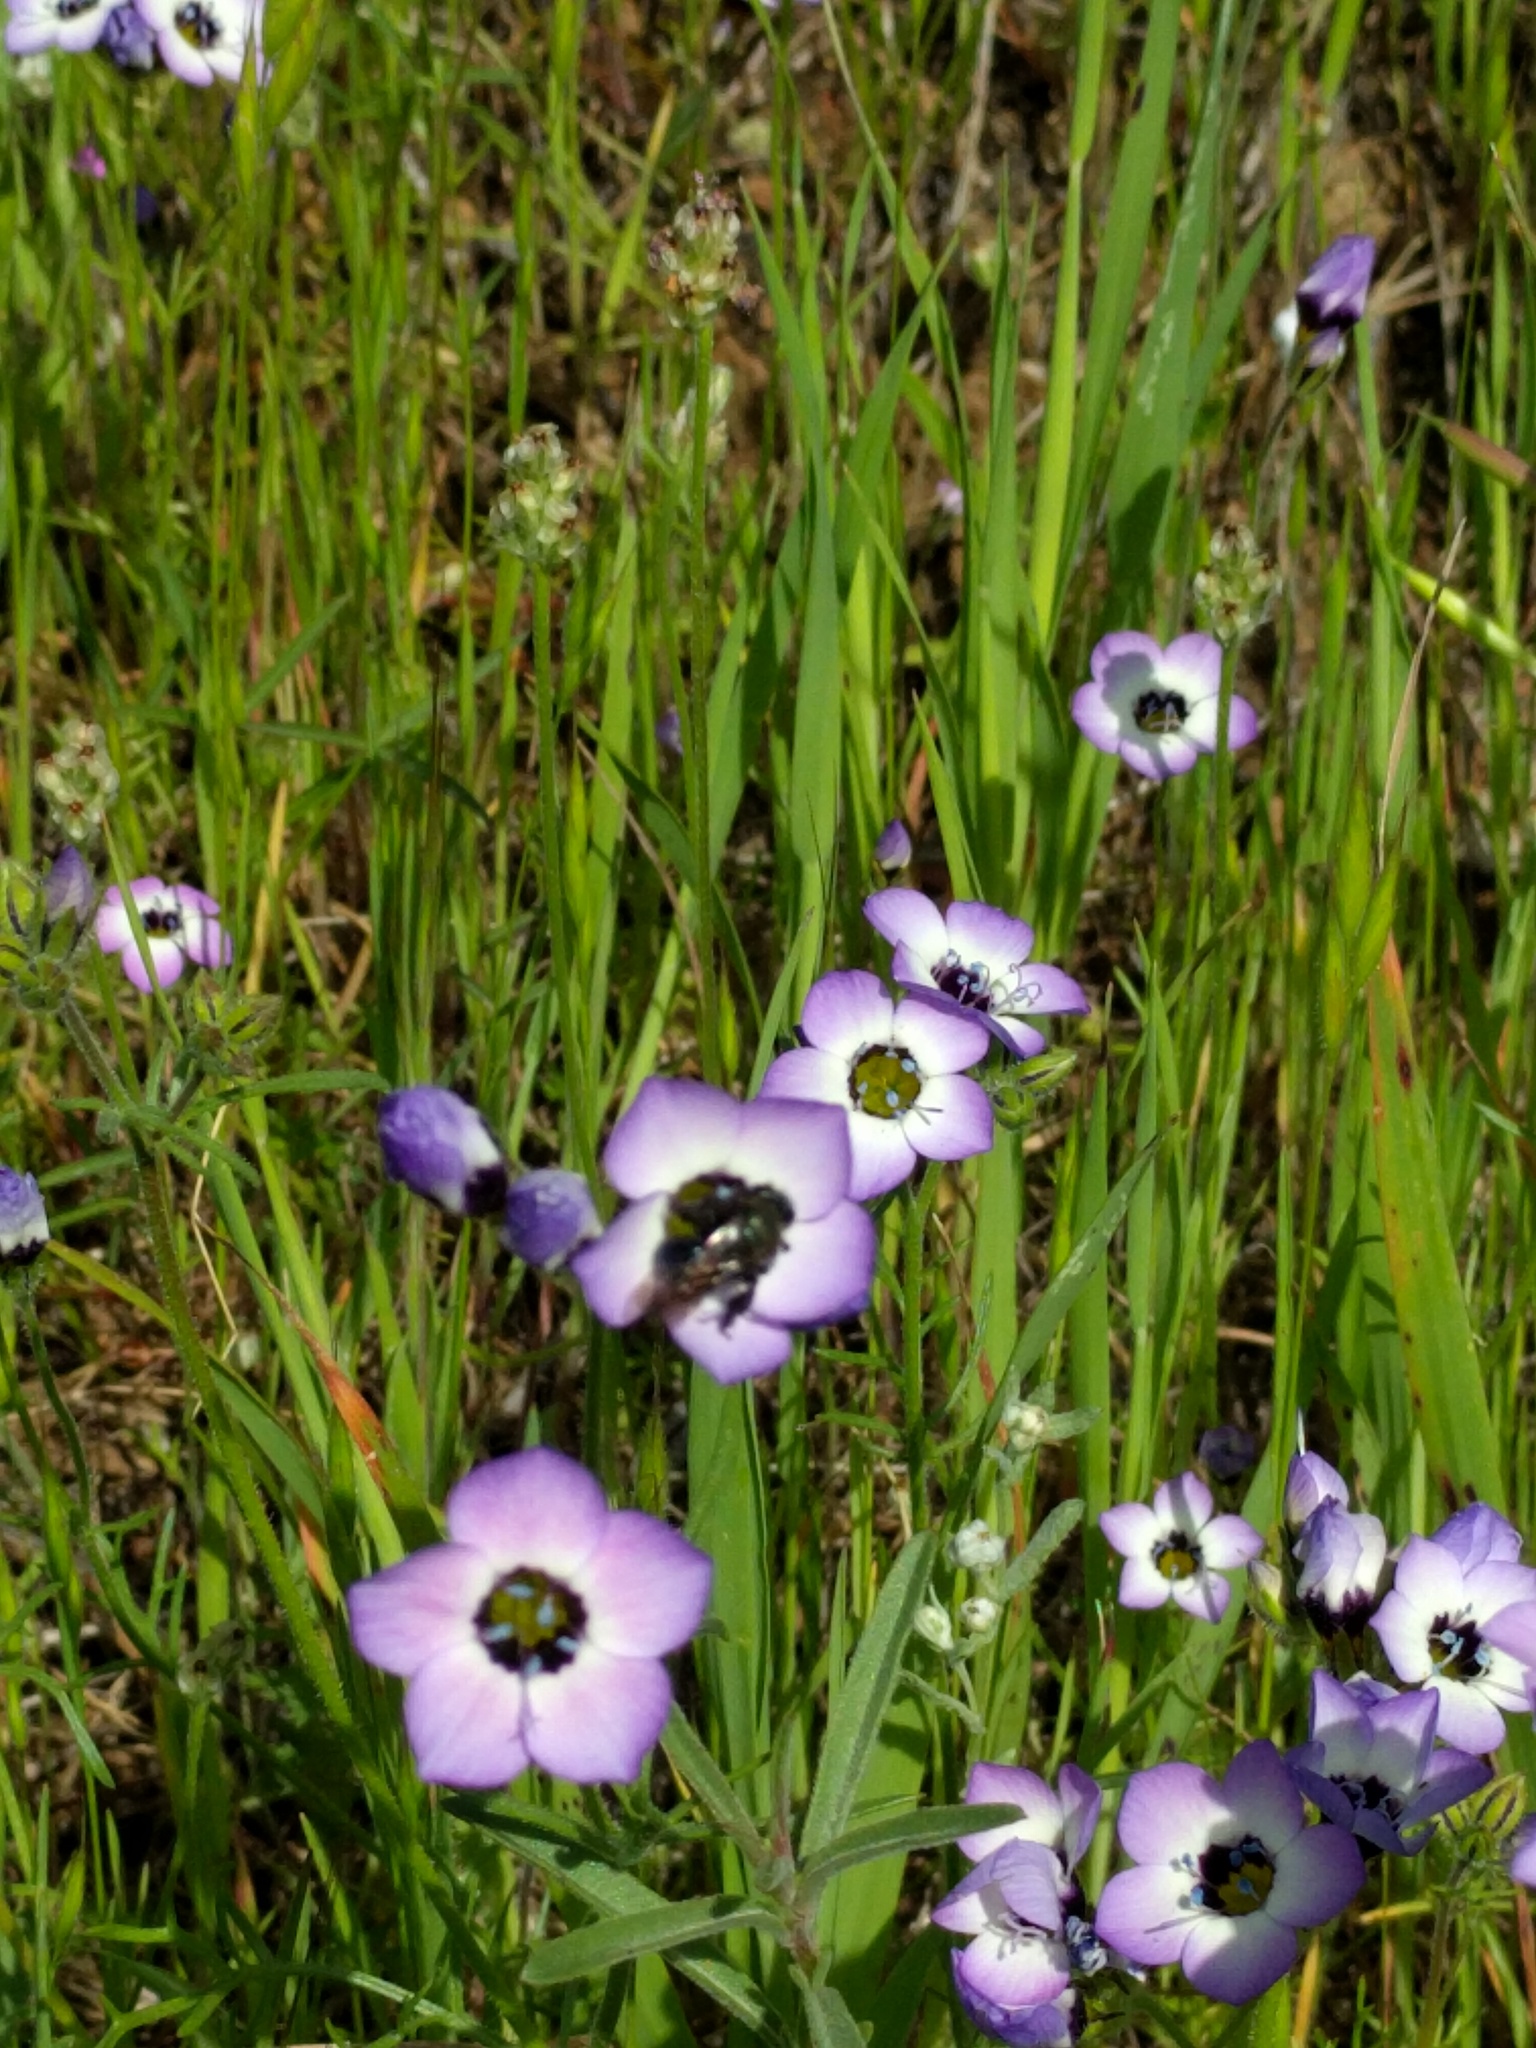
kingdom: Plantae
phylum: Tracheophyta
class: Magnoliopsida
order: Ericales
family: Polemoniaceae
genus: Gilia
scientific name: Gilia tricolor
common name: Bird's-eyes
